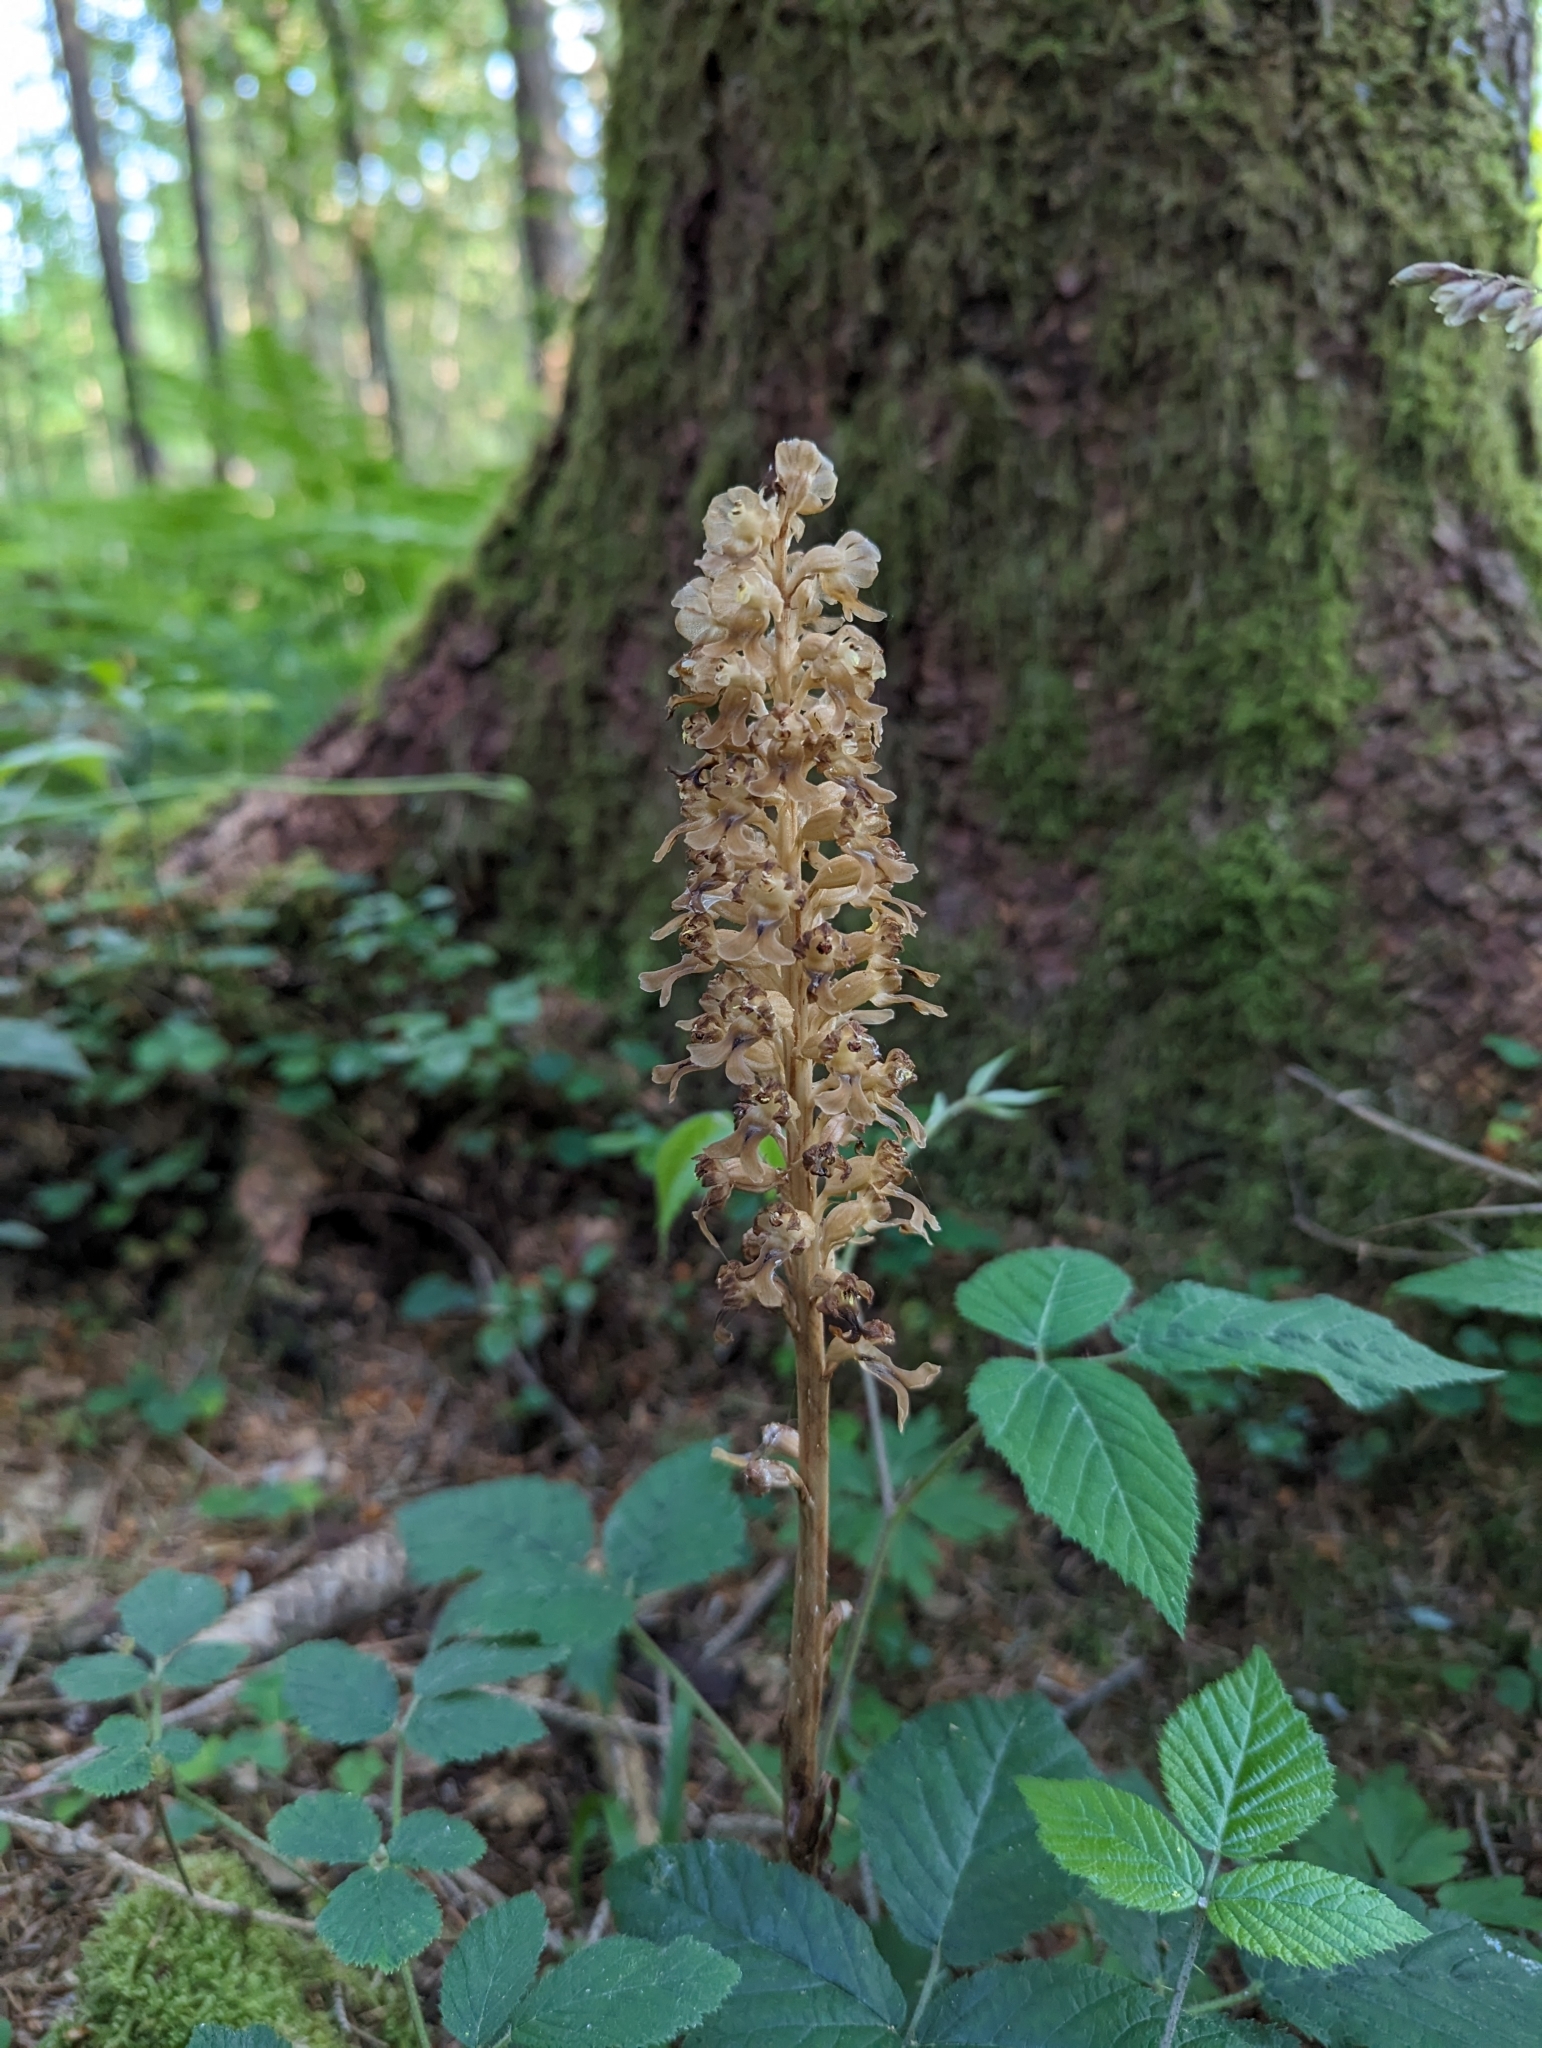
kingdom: Plantae
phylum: Tracheophyta
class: Liliopsida
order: Asparagales
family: Orchidaceae
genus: Neottia
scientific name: Neottia nidus-avis
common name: Bird's-nest orchid
